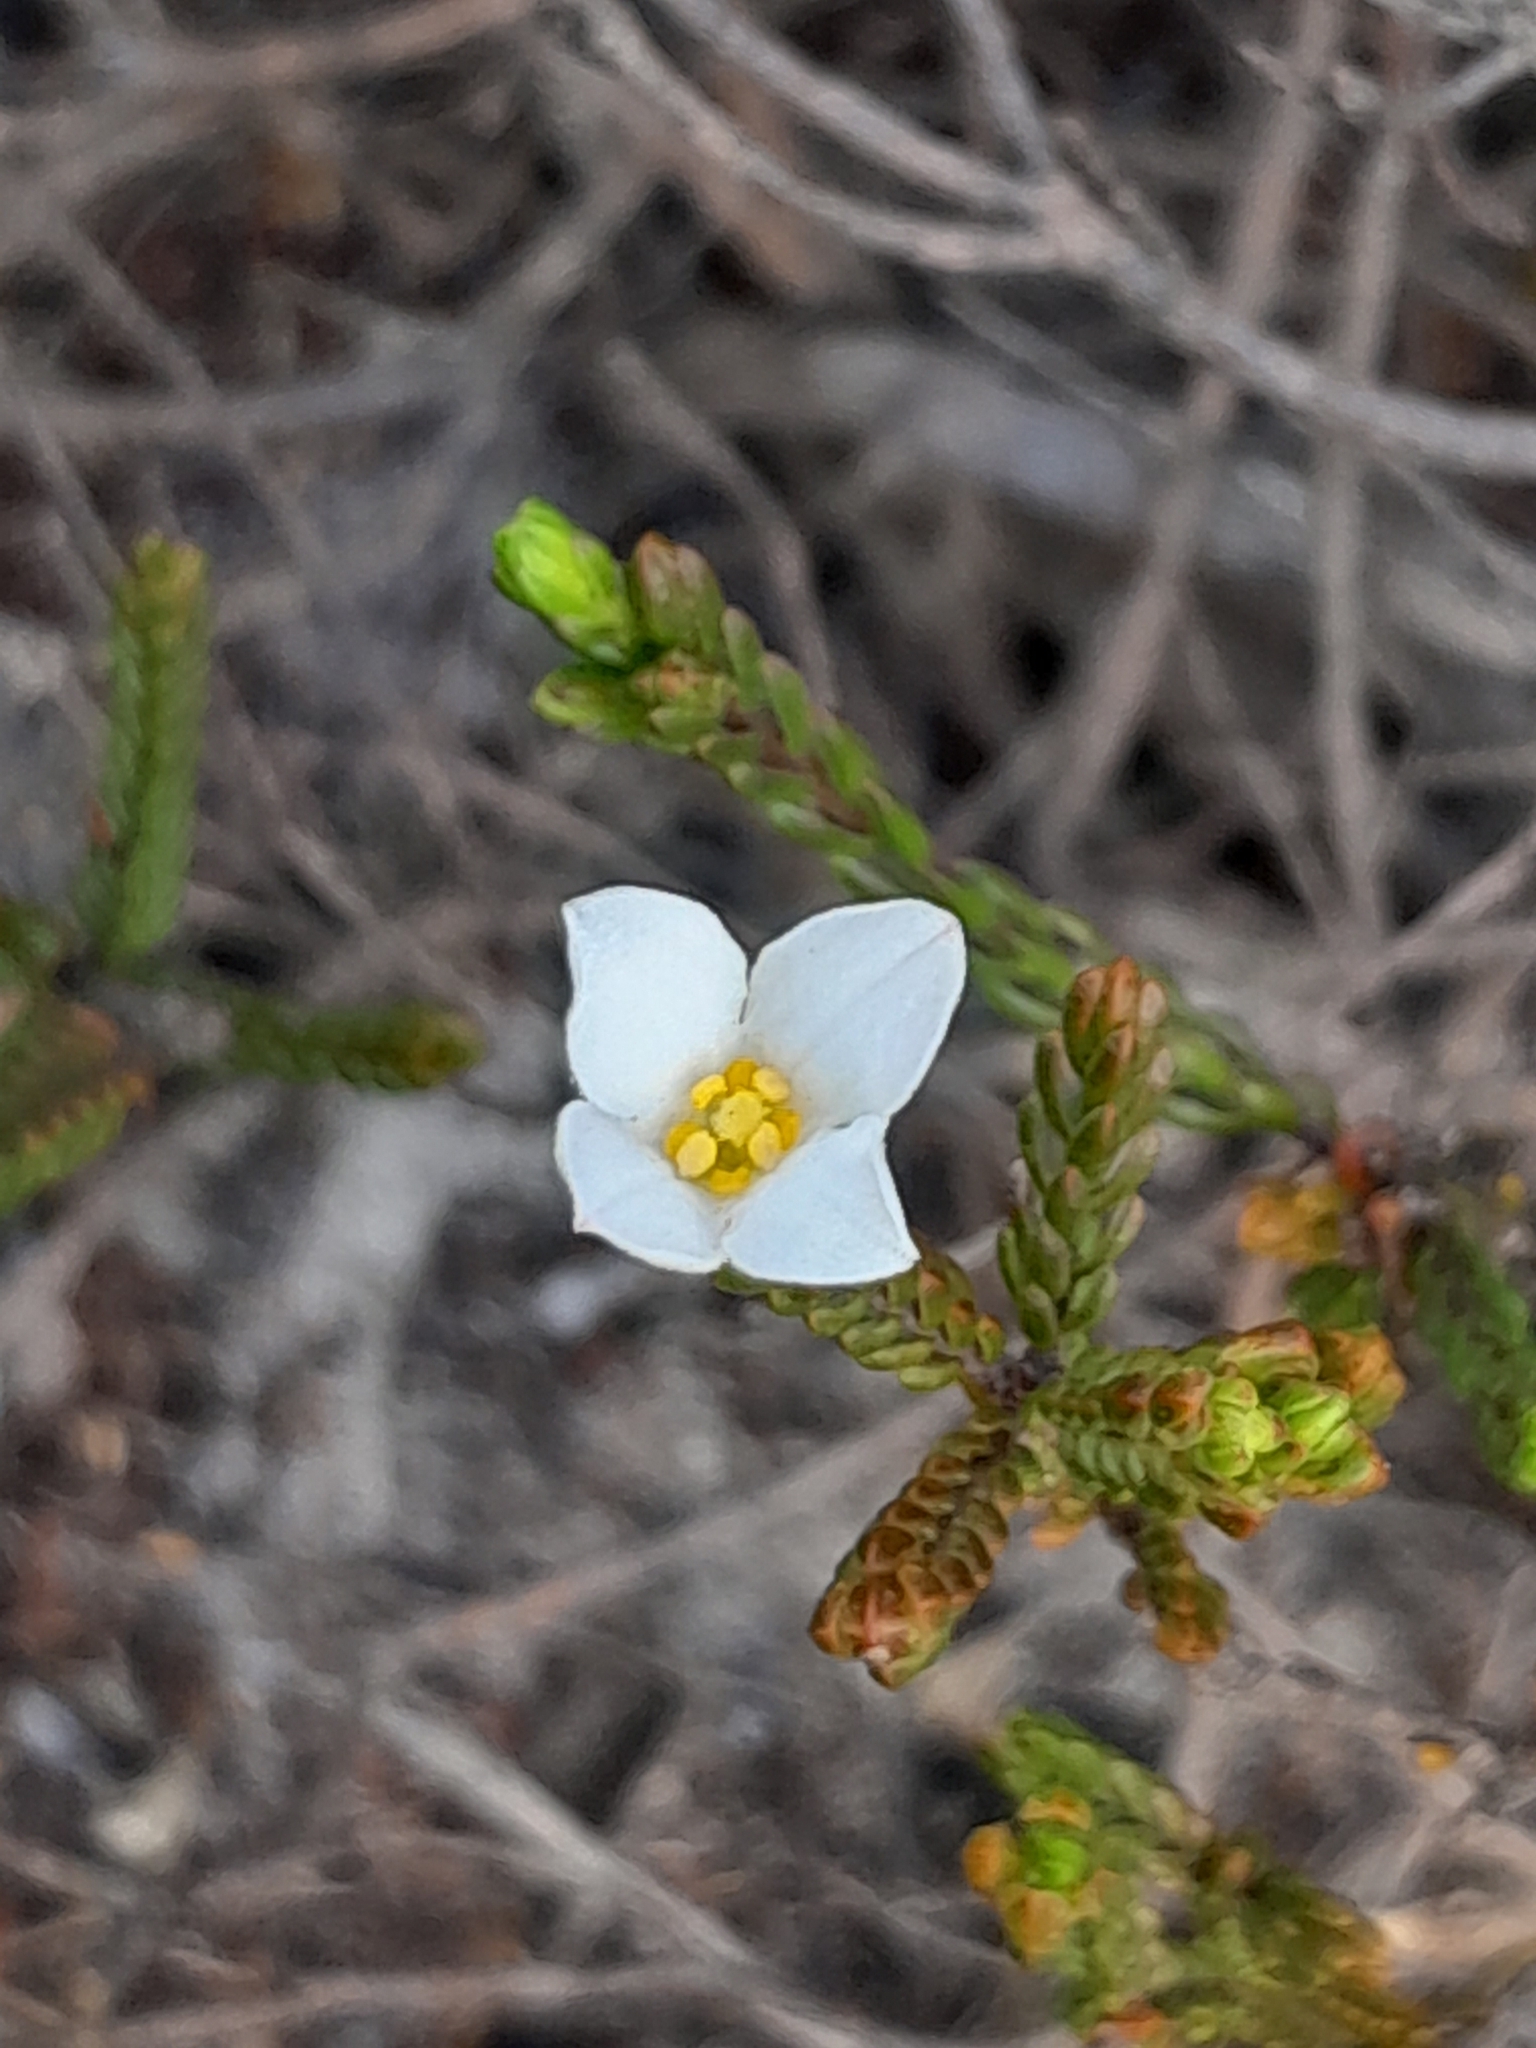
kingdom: Plantae
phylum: Tracheophyta
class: Magnoliopsida
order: Malvales
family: Thymelaeaceae
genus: Lachnaea
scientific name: Lachnaea grandiflora
